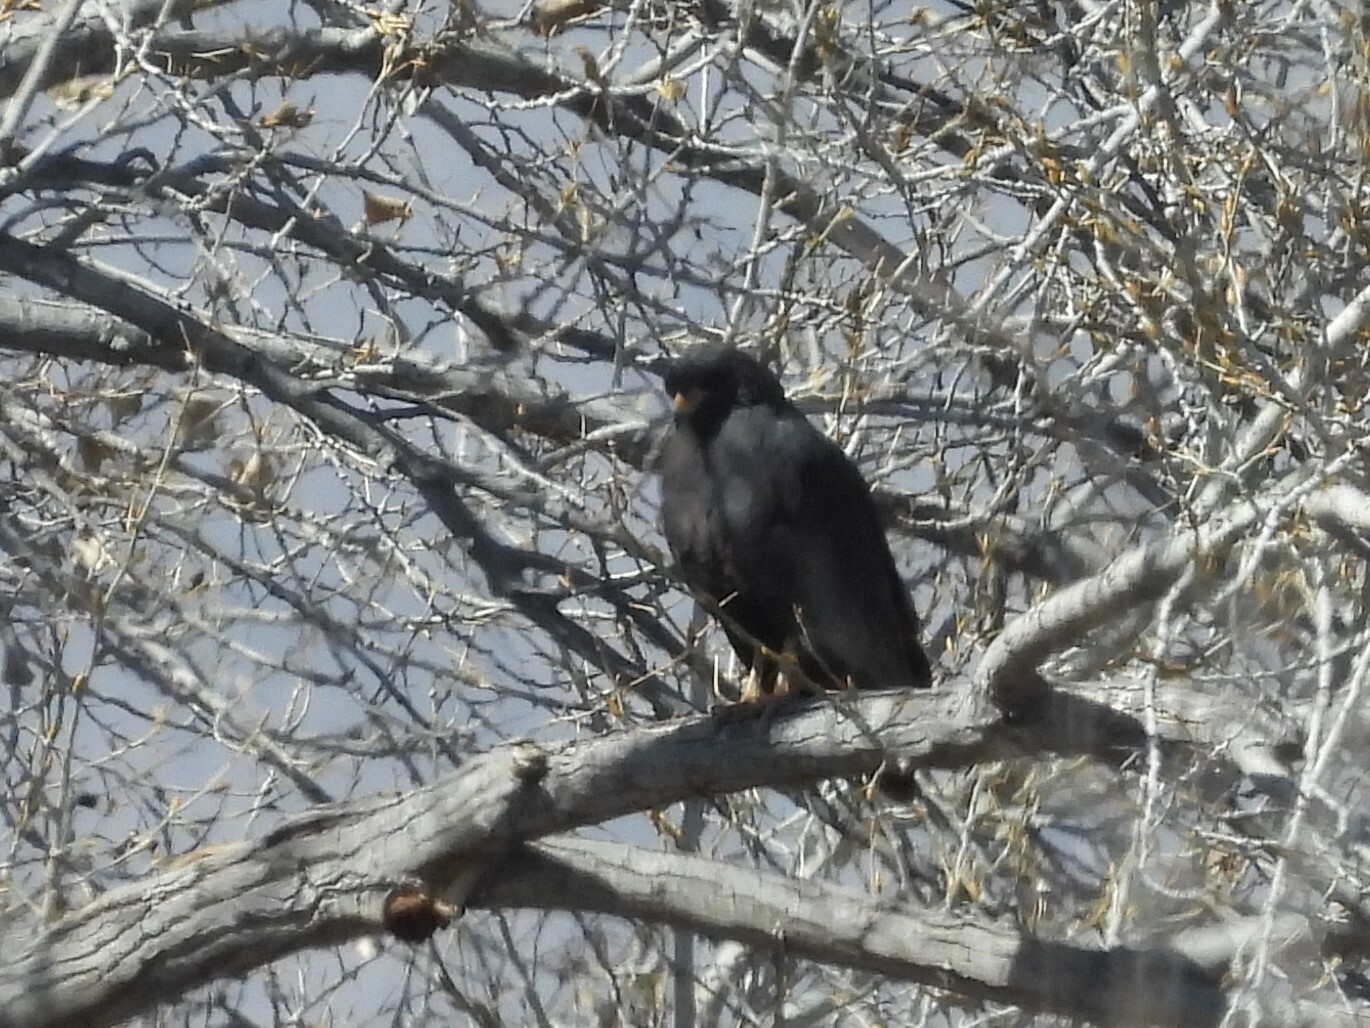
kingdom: Animalia
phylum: Chordata
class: Aves
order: Accipitriformes
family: Accipitridae
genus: Buteogallus
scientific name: Buteogallus anthracinus
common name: Common black hawk
